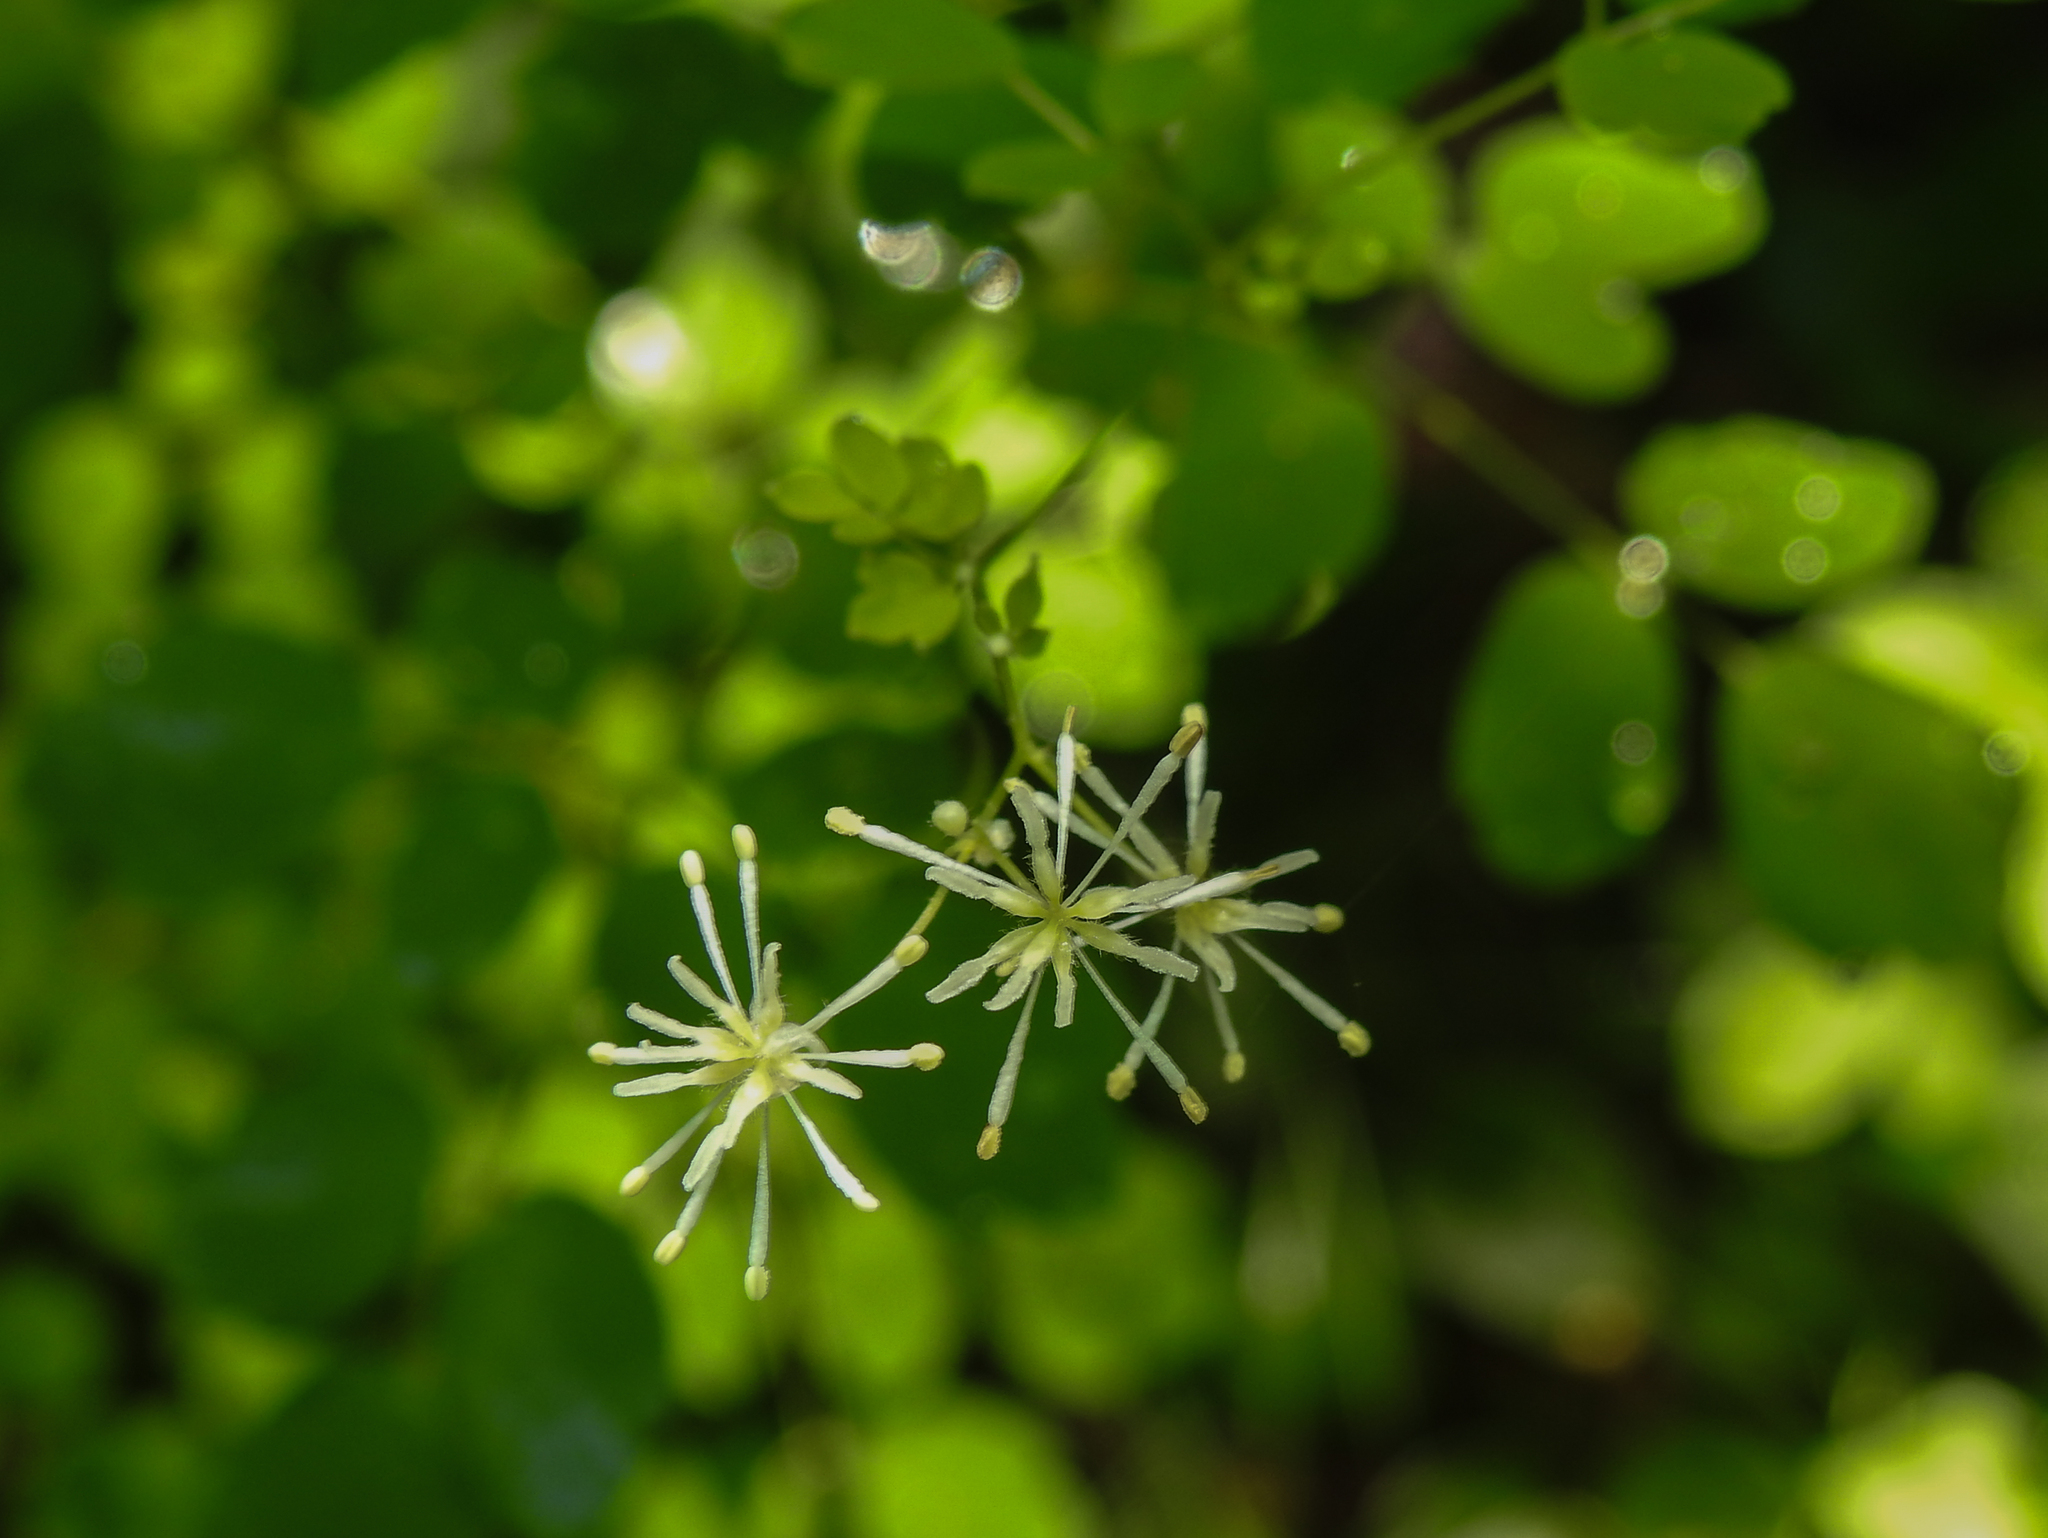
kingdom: Plantae
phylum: Tracheophyta
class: Magnoliopsida
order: Ranunculales
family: Ranunculaceae
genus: Thalictrum
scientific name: Thalictrum pubescens
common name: King-of-the-meadow
